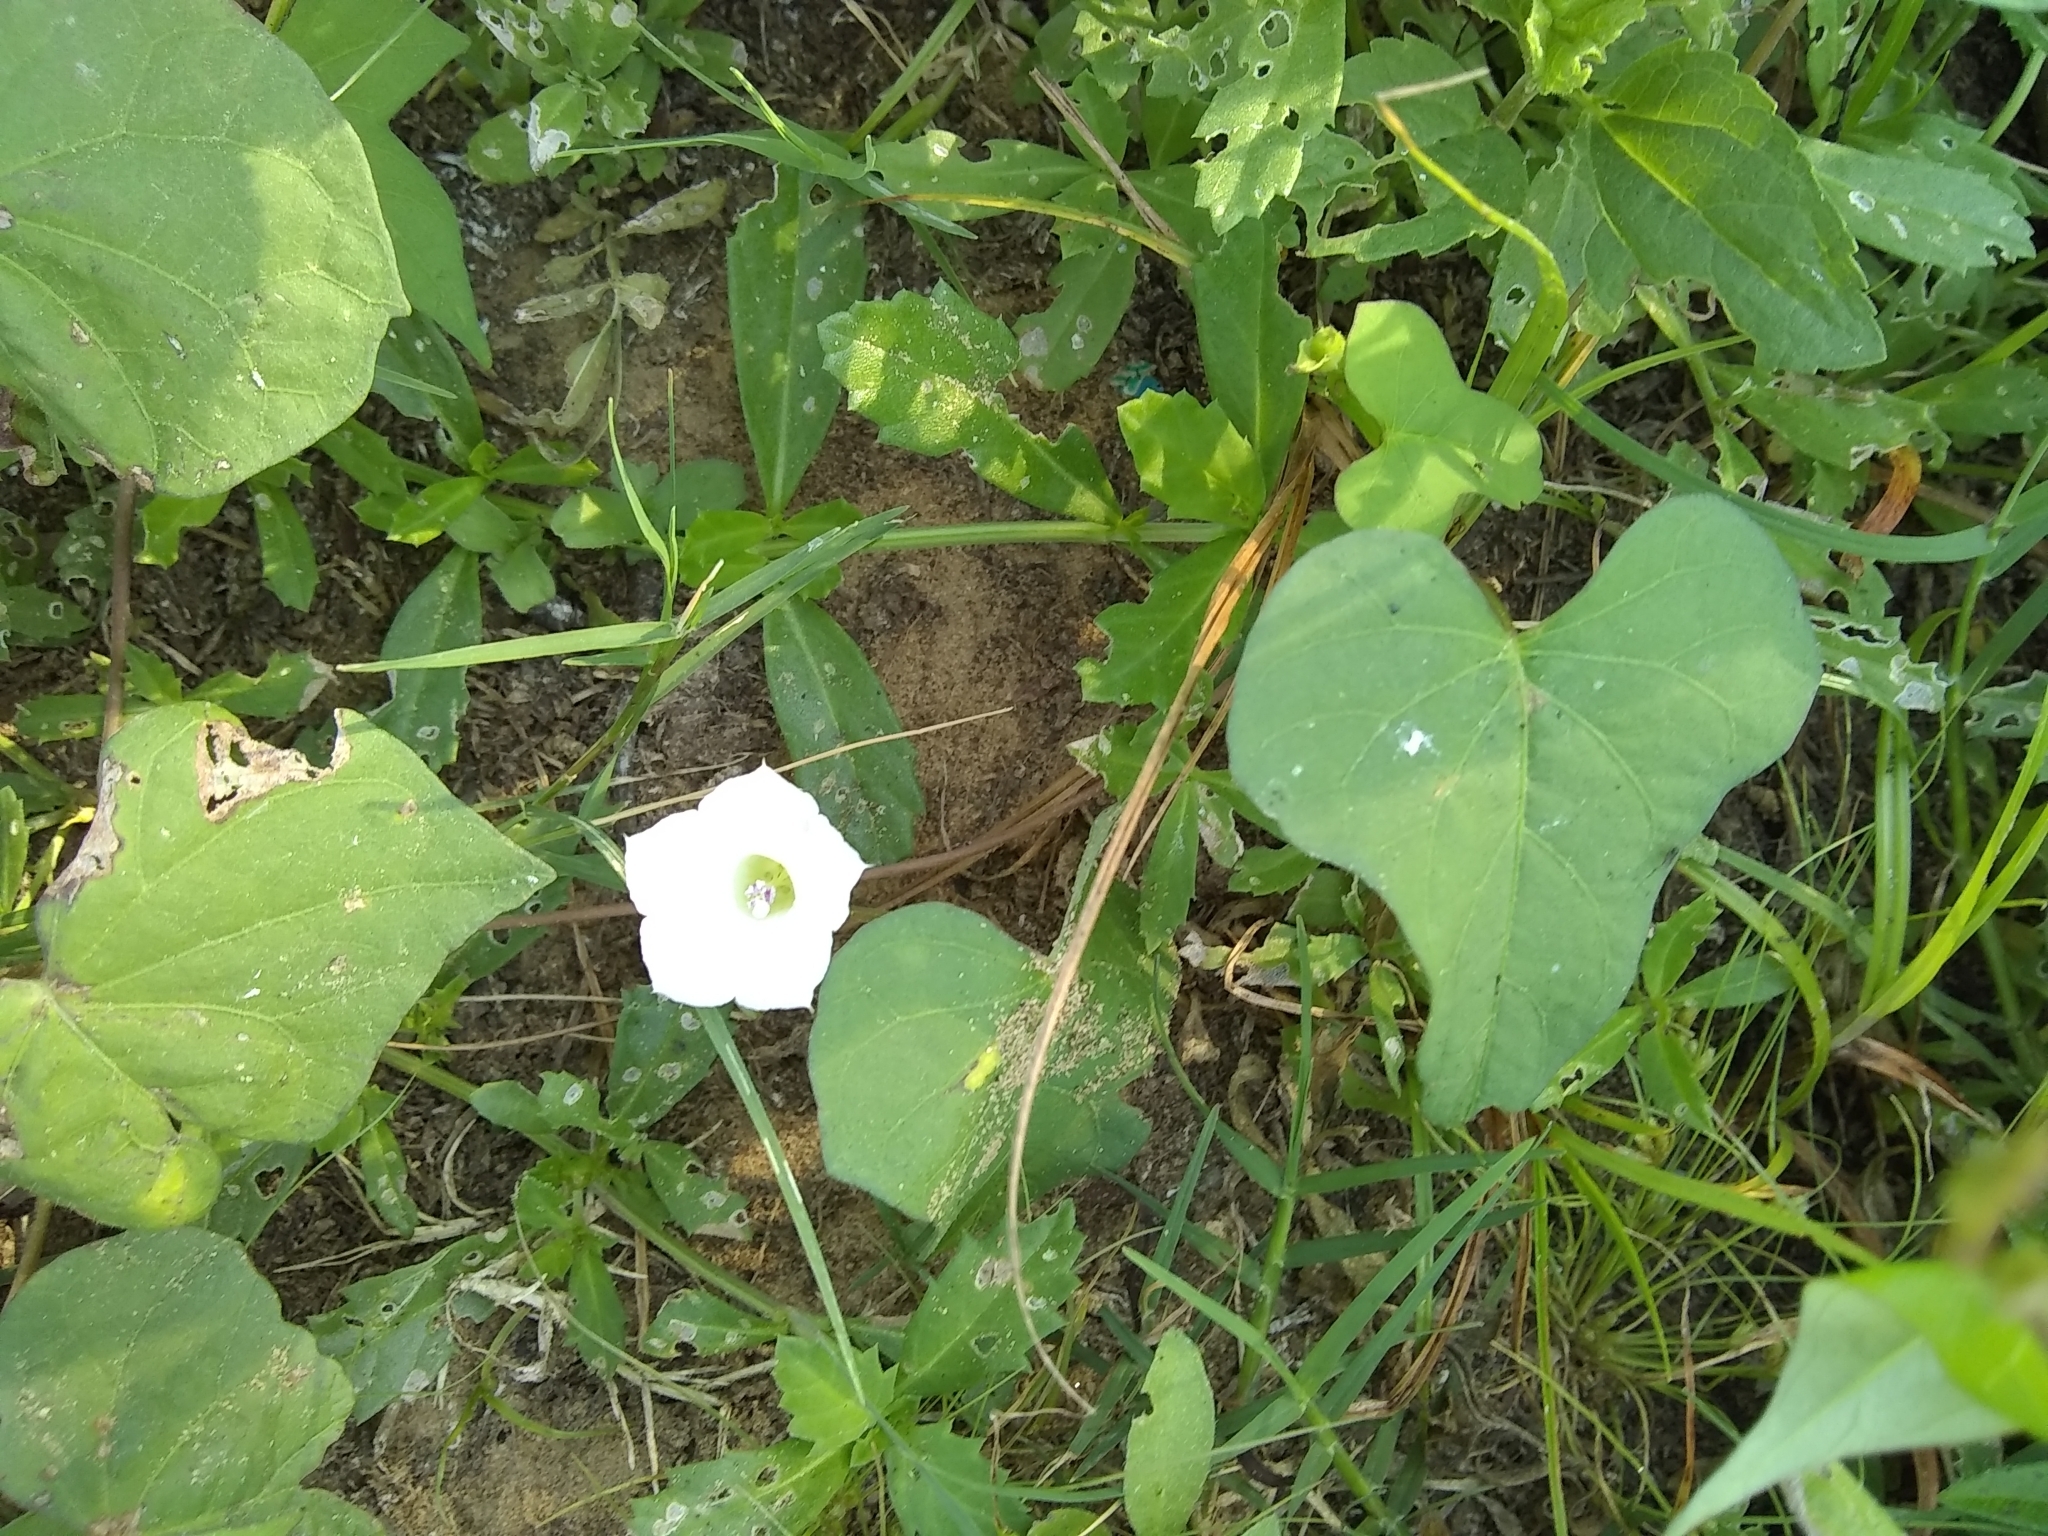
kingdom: Plantae
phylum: Tracheophyta
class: Magnoliopsida
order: Solanales
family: Convolvulaceae
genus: Ipomoea
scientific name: Ipomoea lacunosa
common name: White morning-glory
